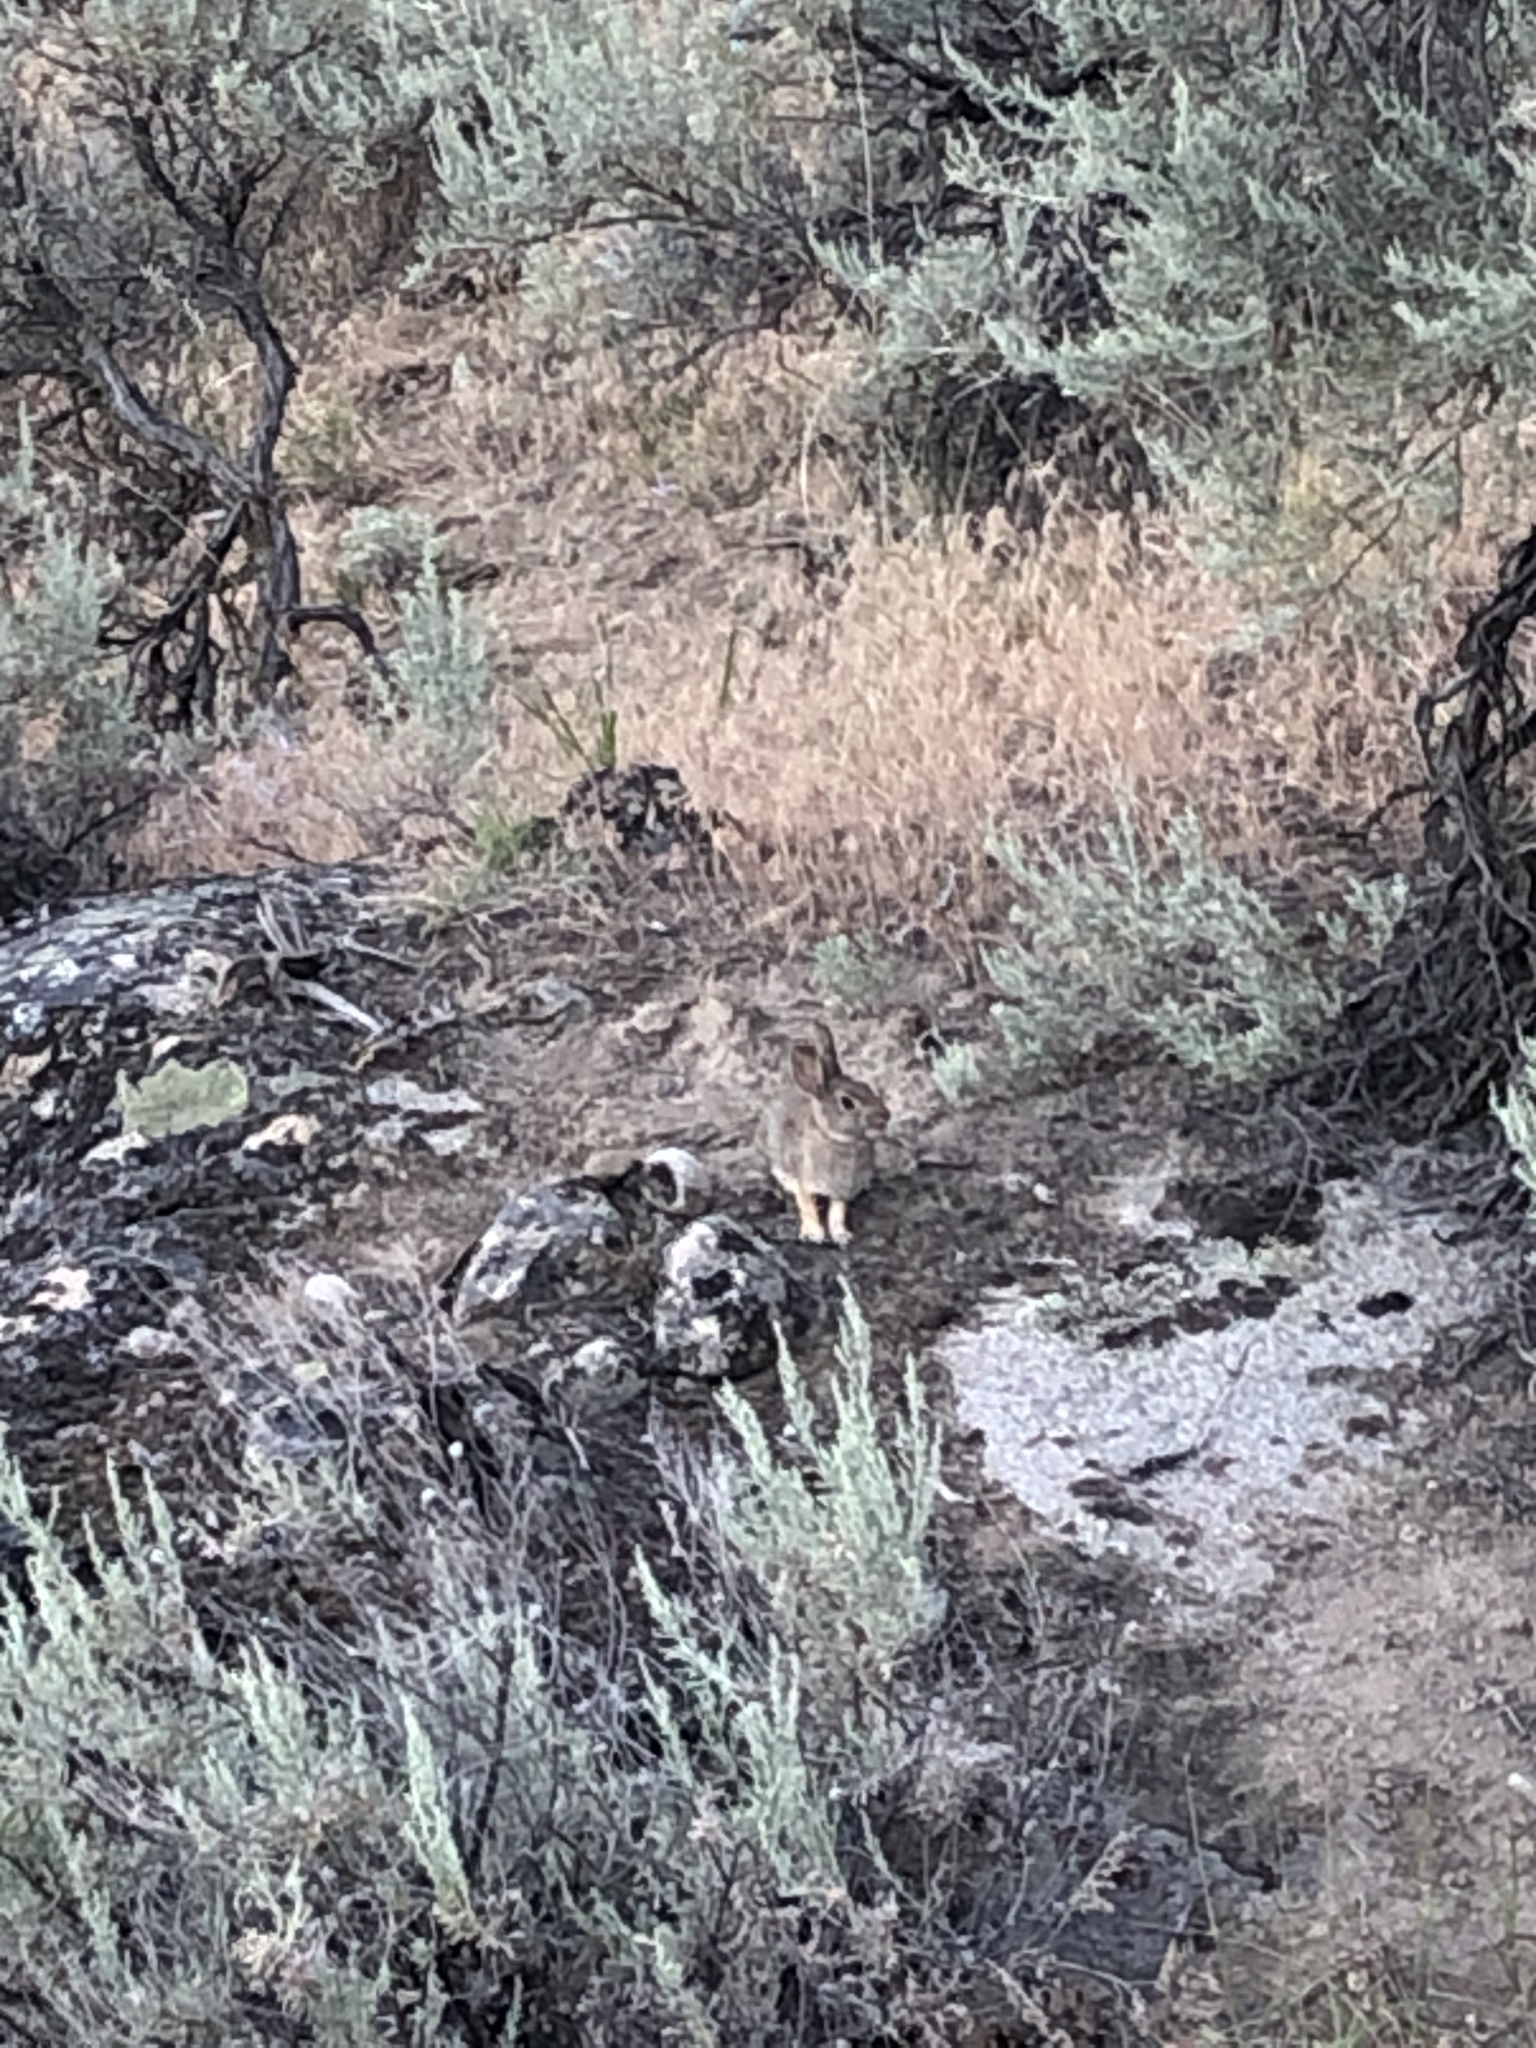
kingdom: Animalia
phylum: Chordata
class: Mammalia
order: Lagomorpha
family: Leporidae
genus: Sylvilagus
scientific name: Sylvilagus nuttallii
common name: Mountain cottontail
